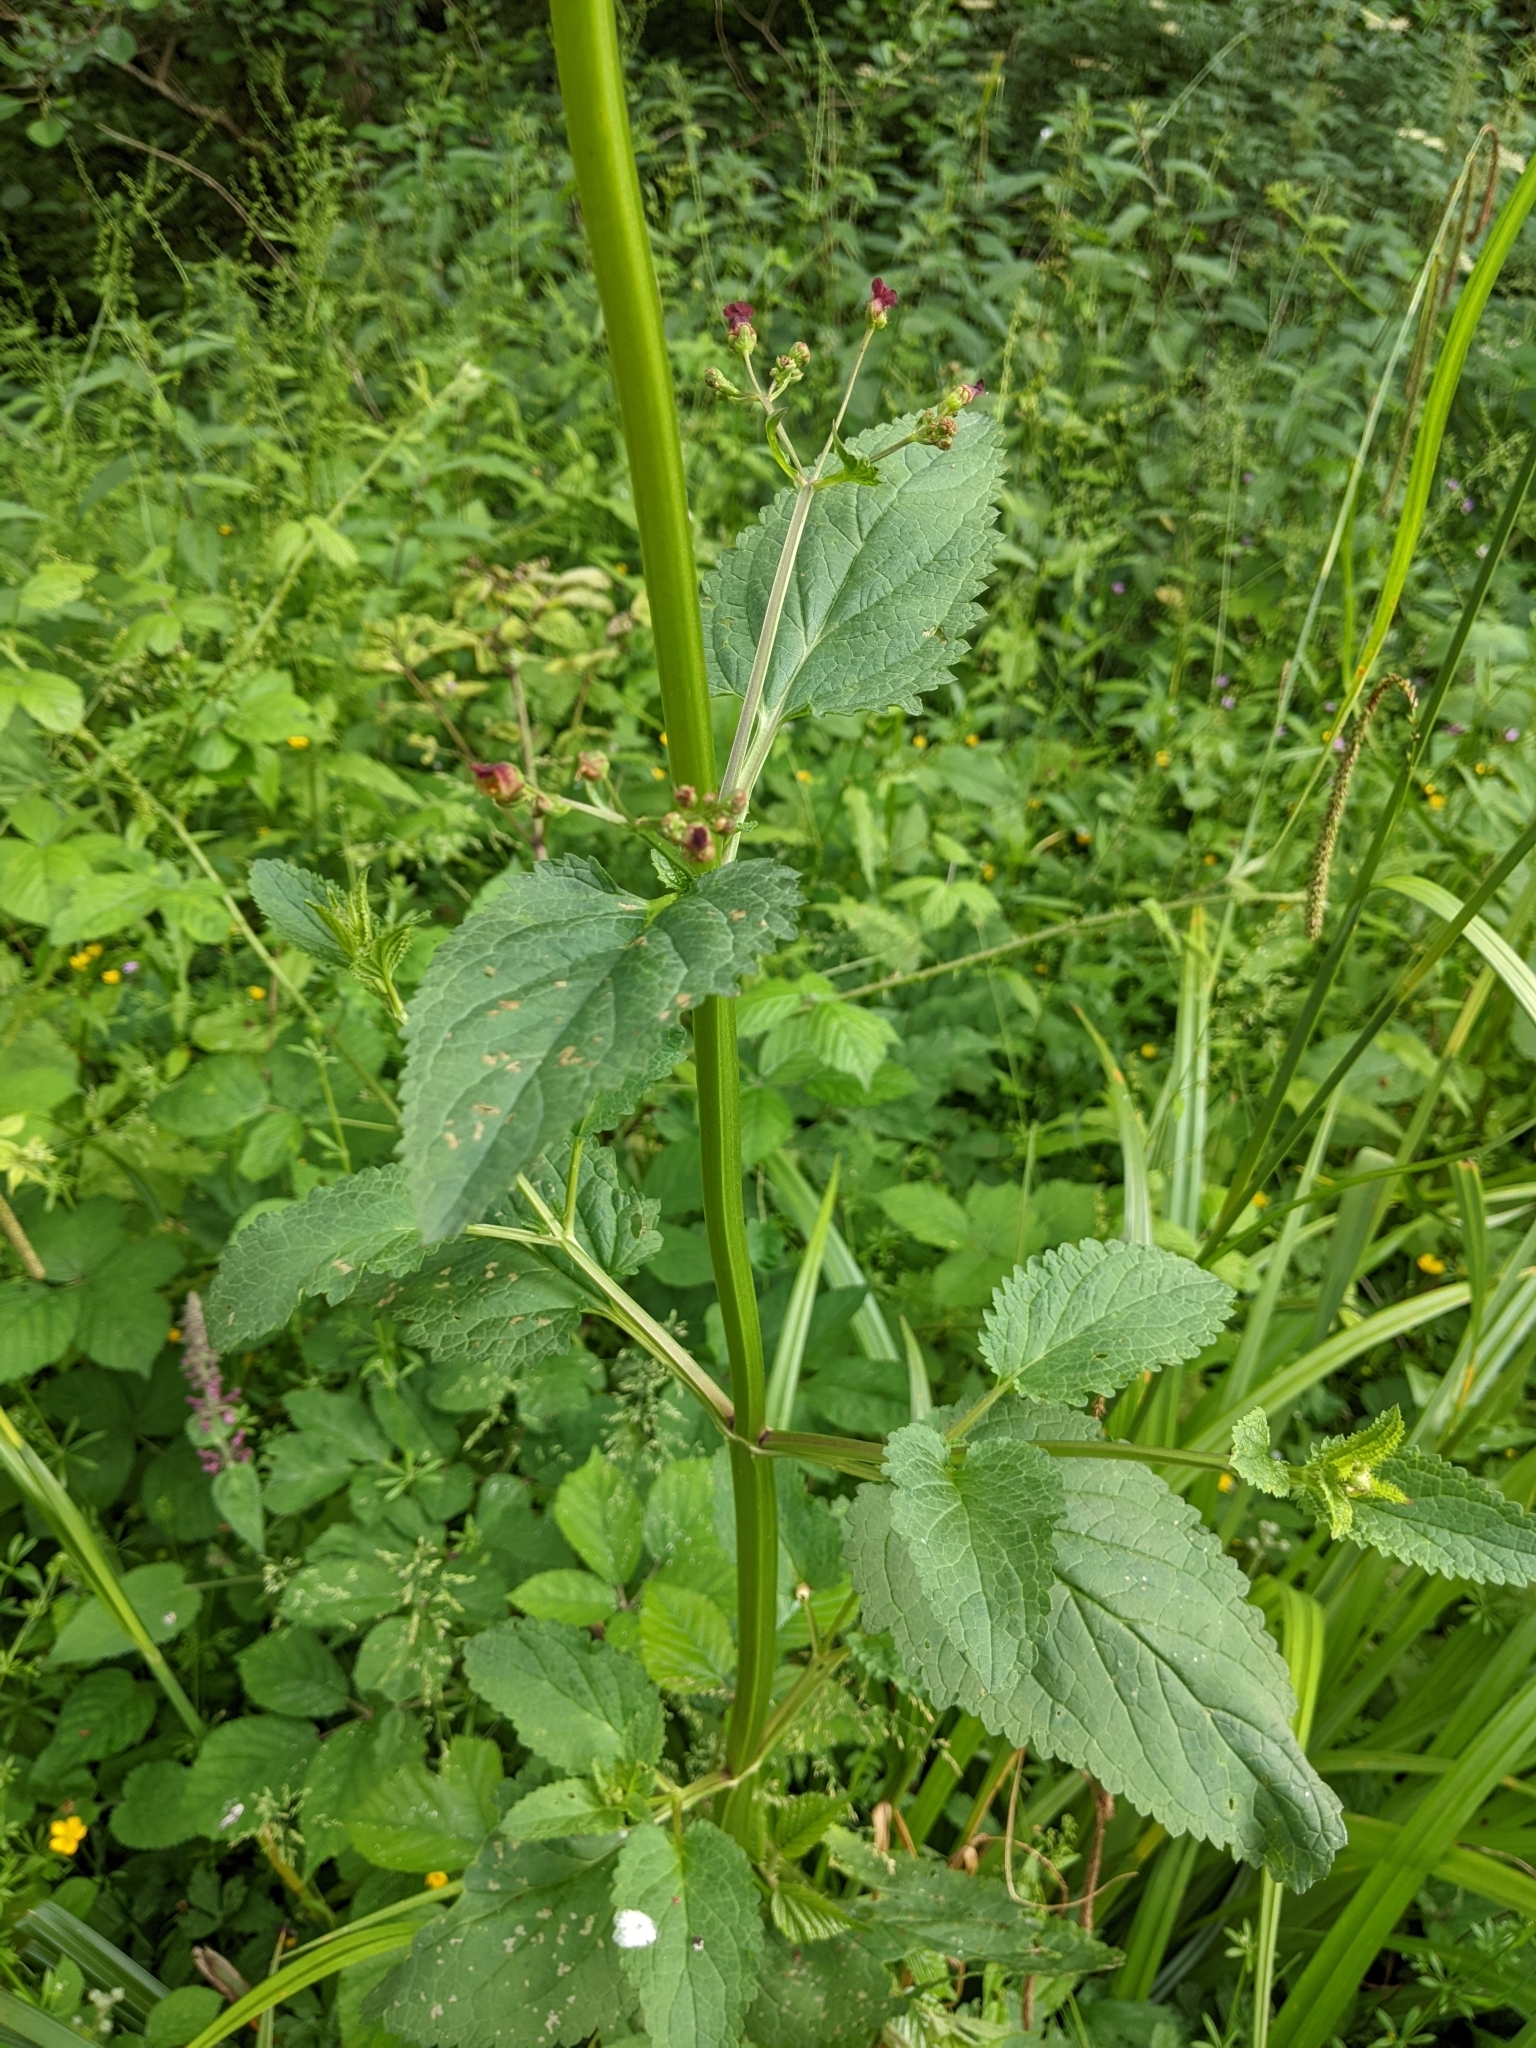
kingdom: Plantae
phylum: Tracheophyta
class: Magnoliopsida
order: Lamiales
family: Scrophulariaceae
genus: Scrophularia
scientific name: Scrophularia nodosa
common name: Common figwort
